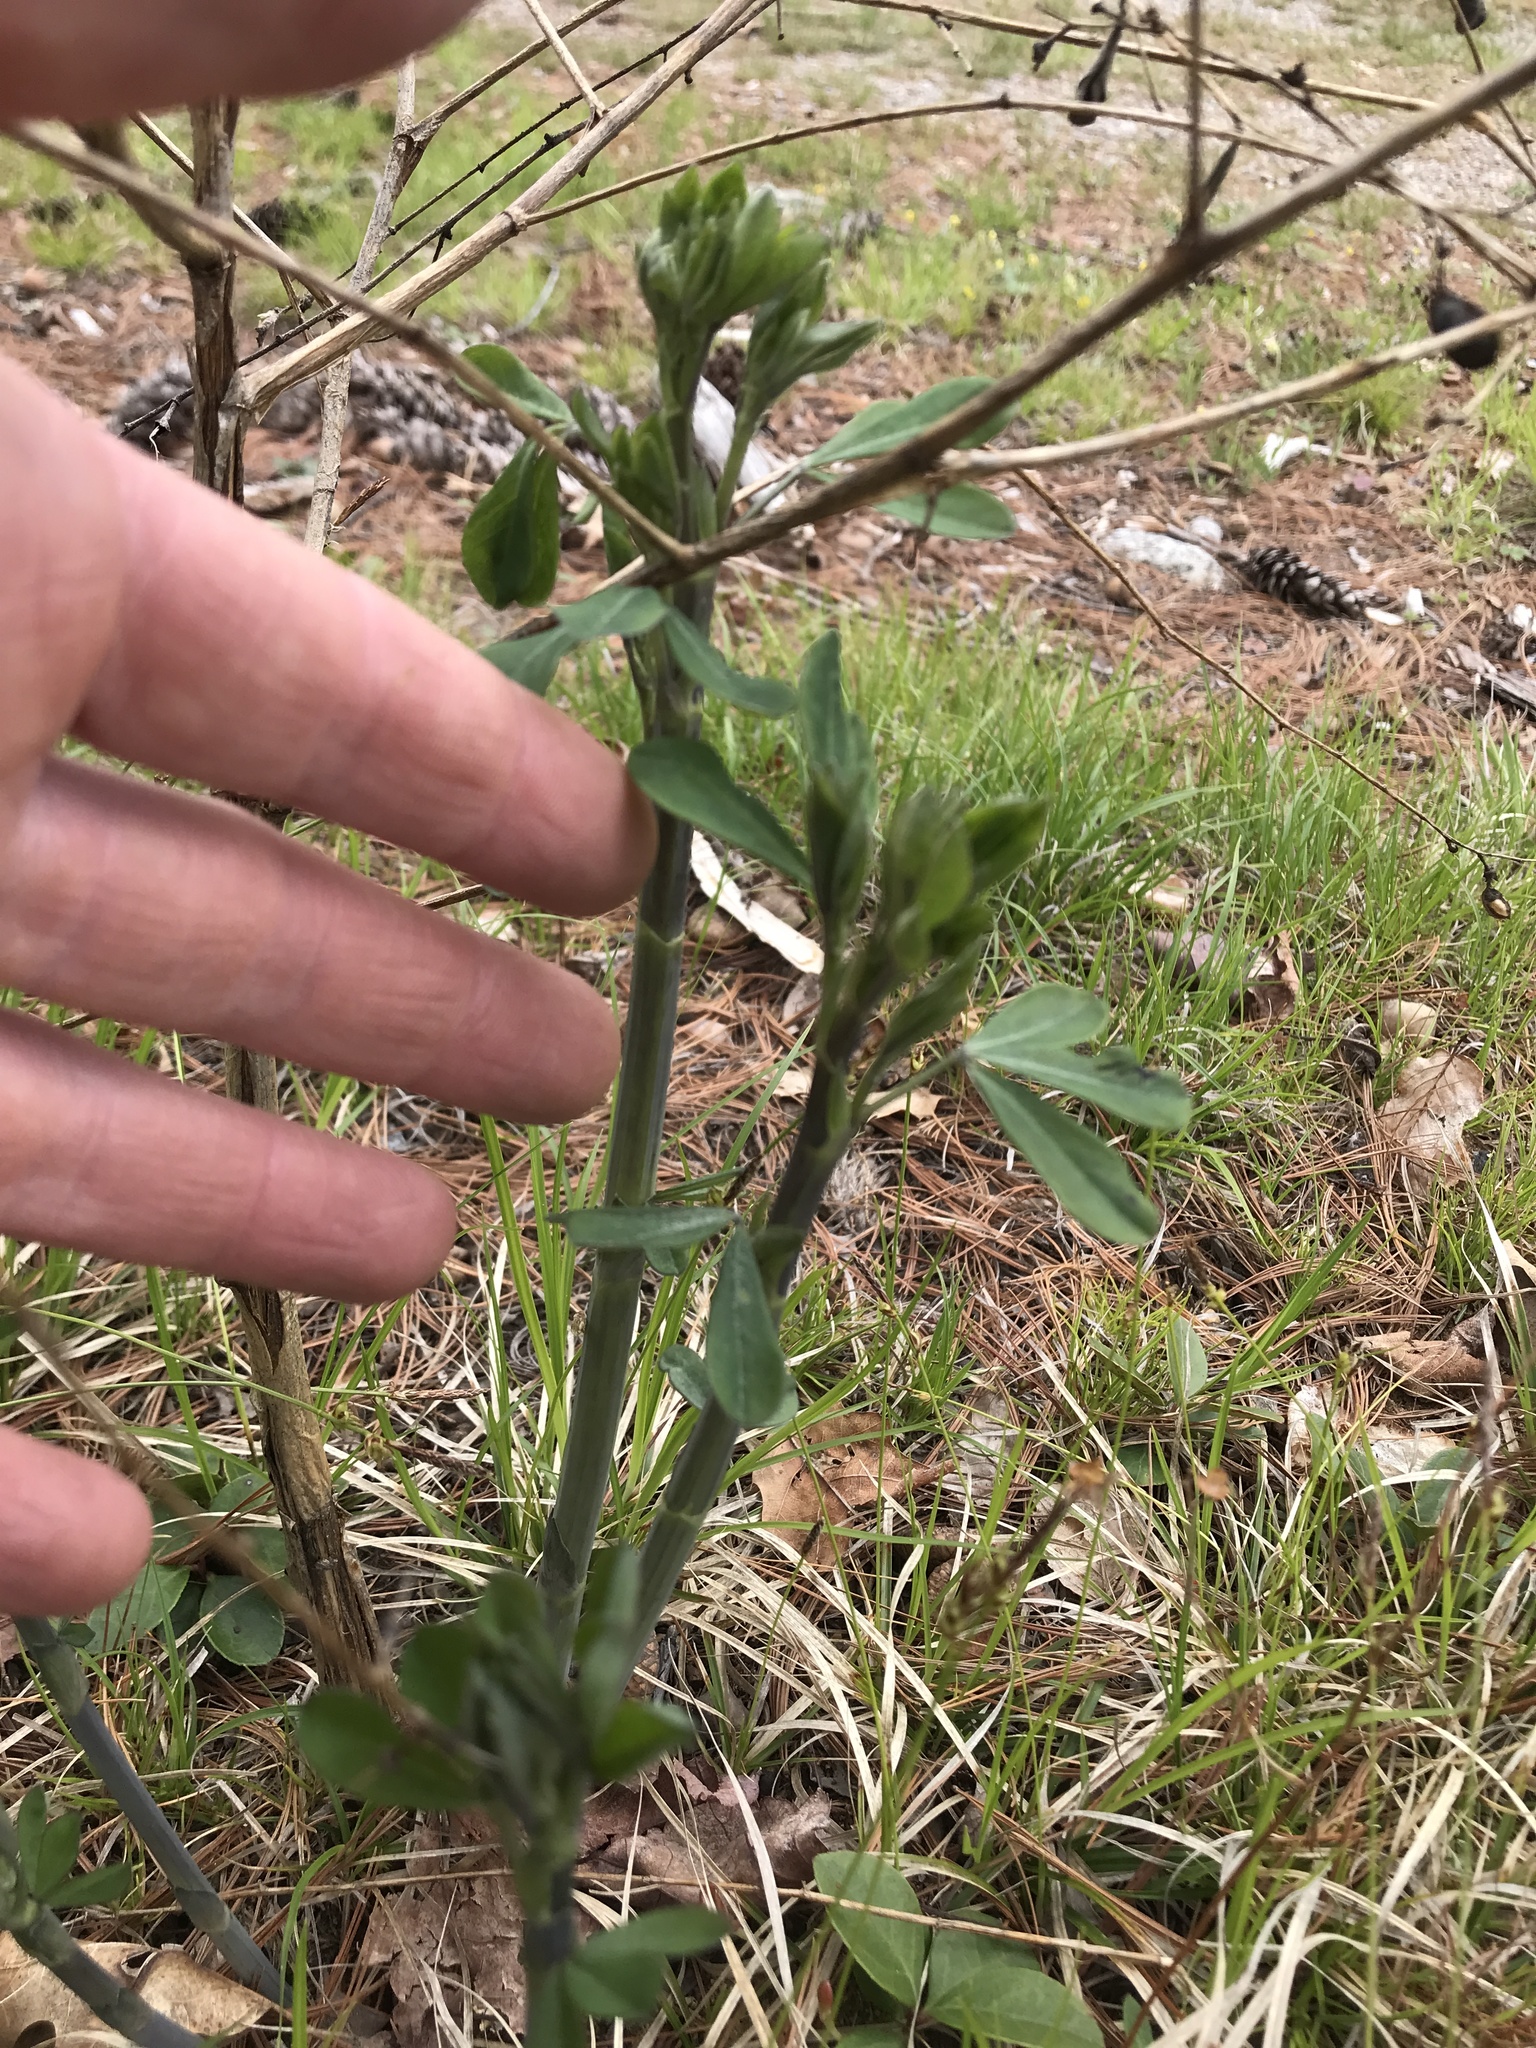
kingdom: Plantae
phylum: Tracheophyta
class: Magnoliopsida
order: Fabales
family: Fabaceae
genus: Baptisia
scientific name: Baptisia tinctoria
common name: Wild indigo
